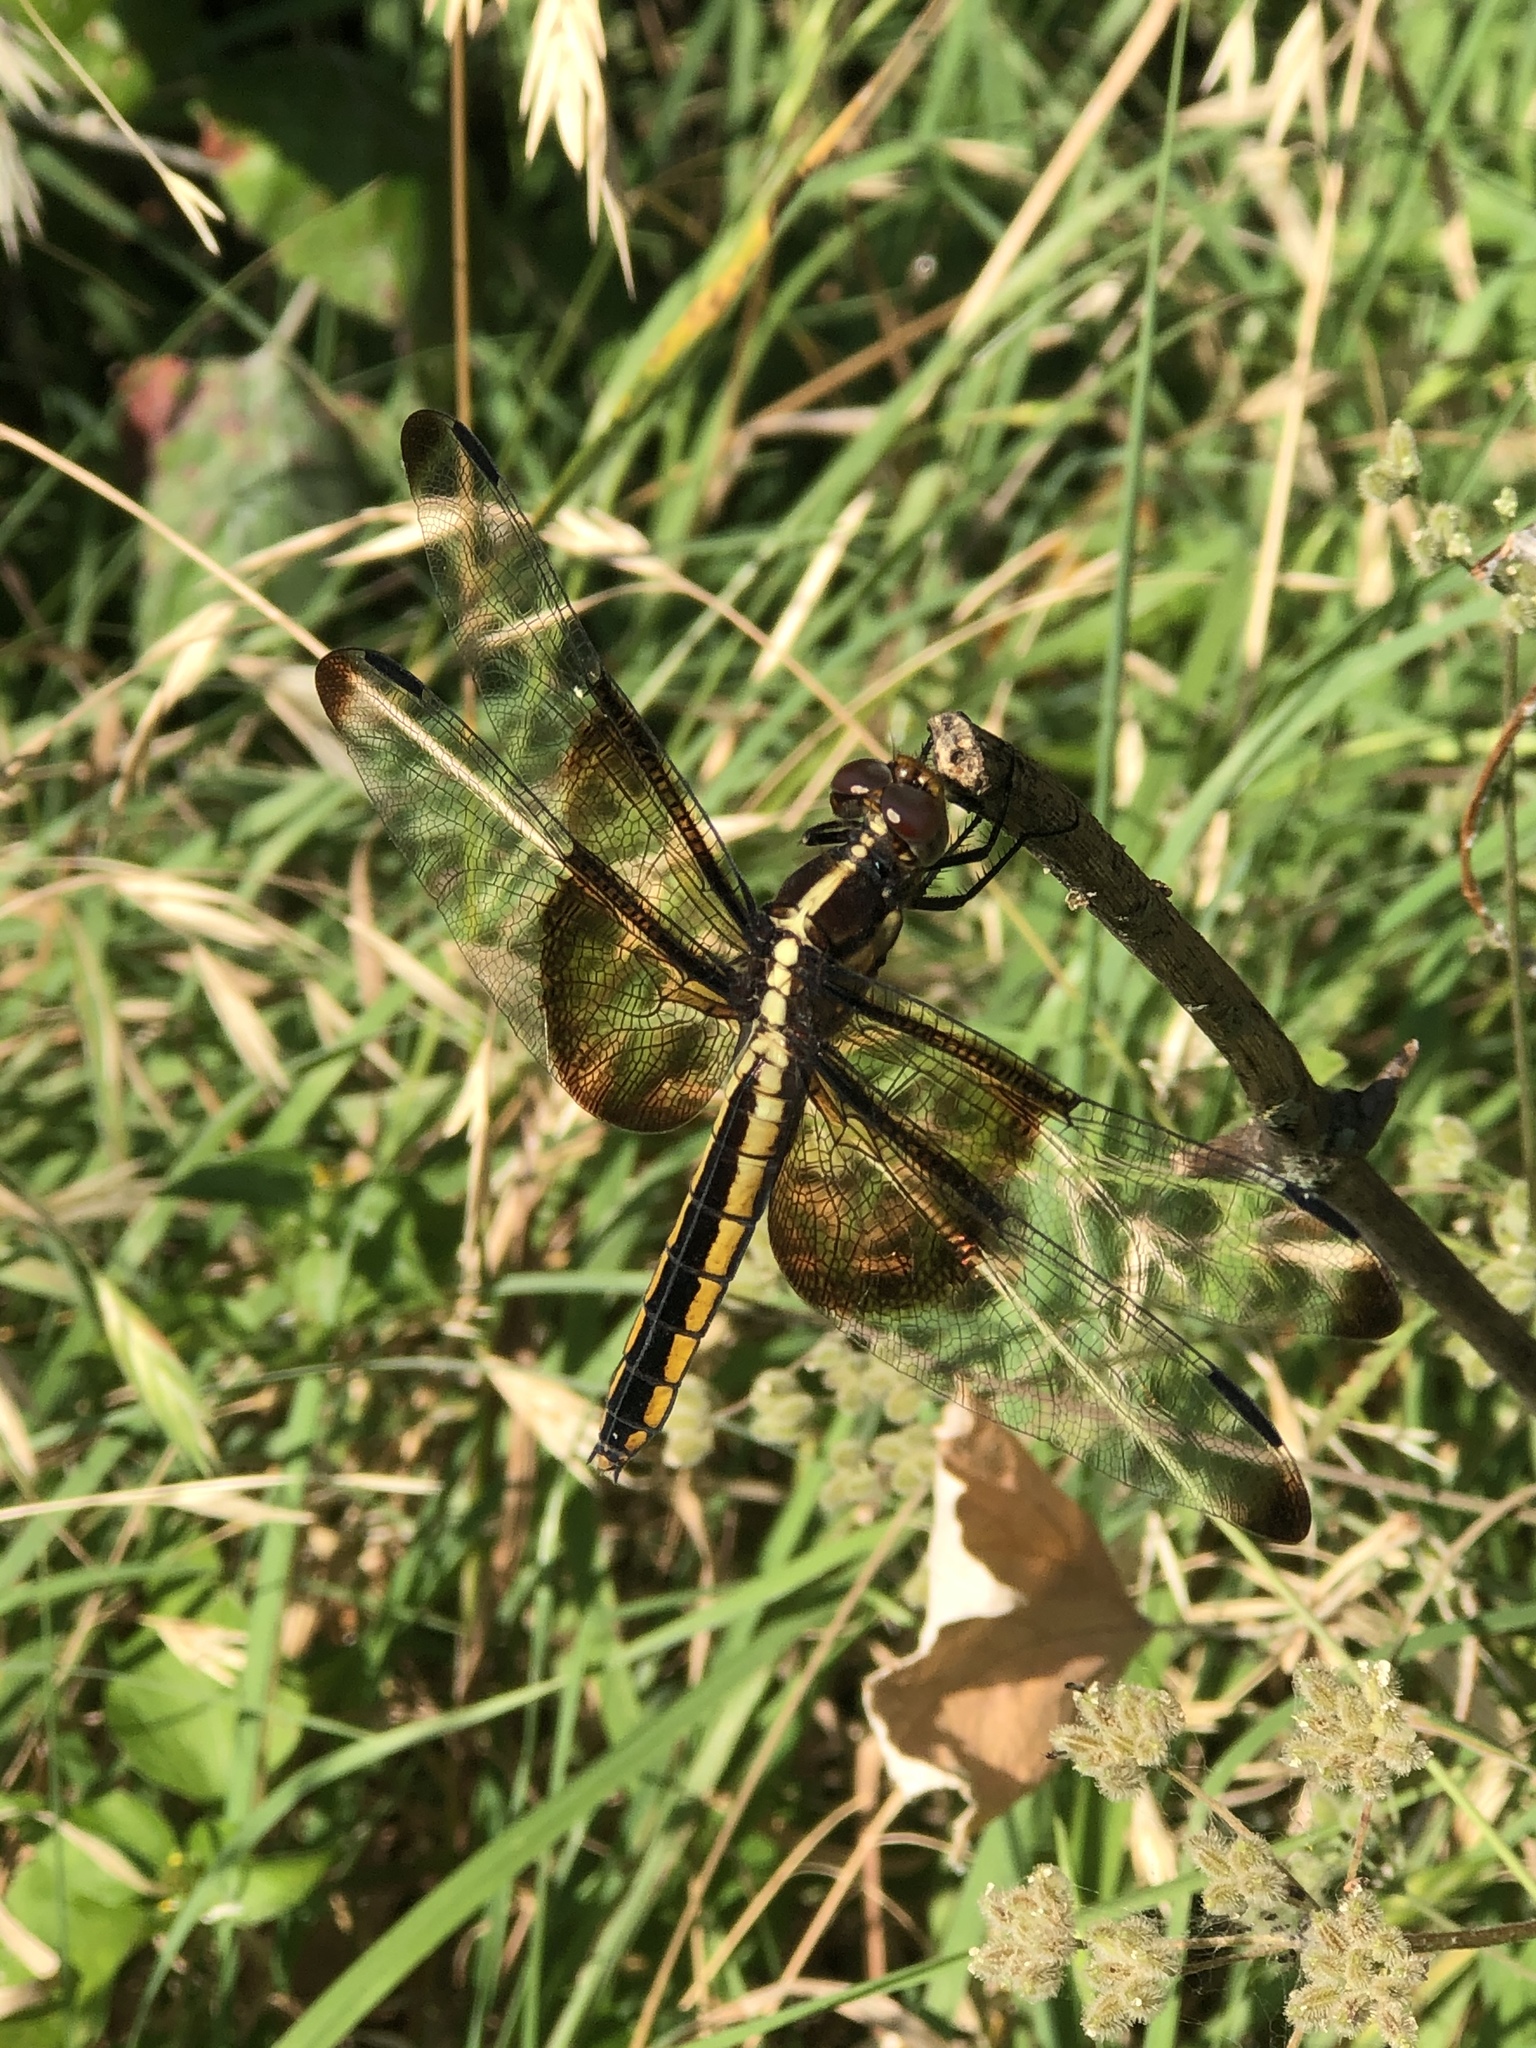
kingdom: Animalia
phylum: Arthropoda
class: Insecta
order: Odonata
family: Libellulidae
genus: Libellula
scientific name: Libellula luctuosa
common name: Widow skimmer
